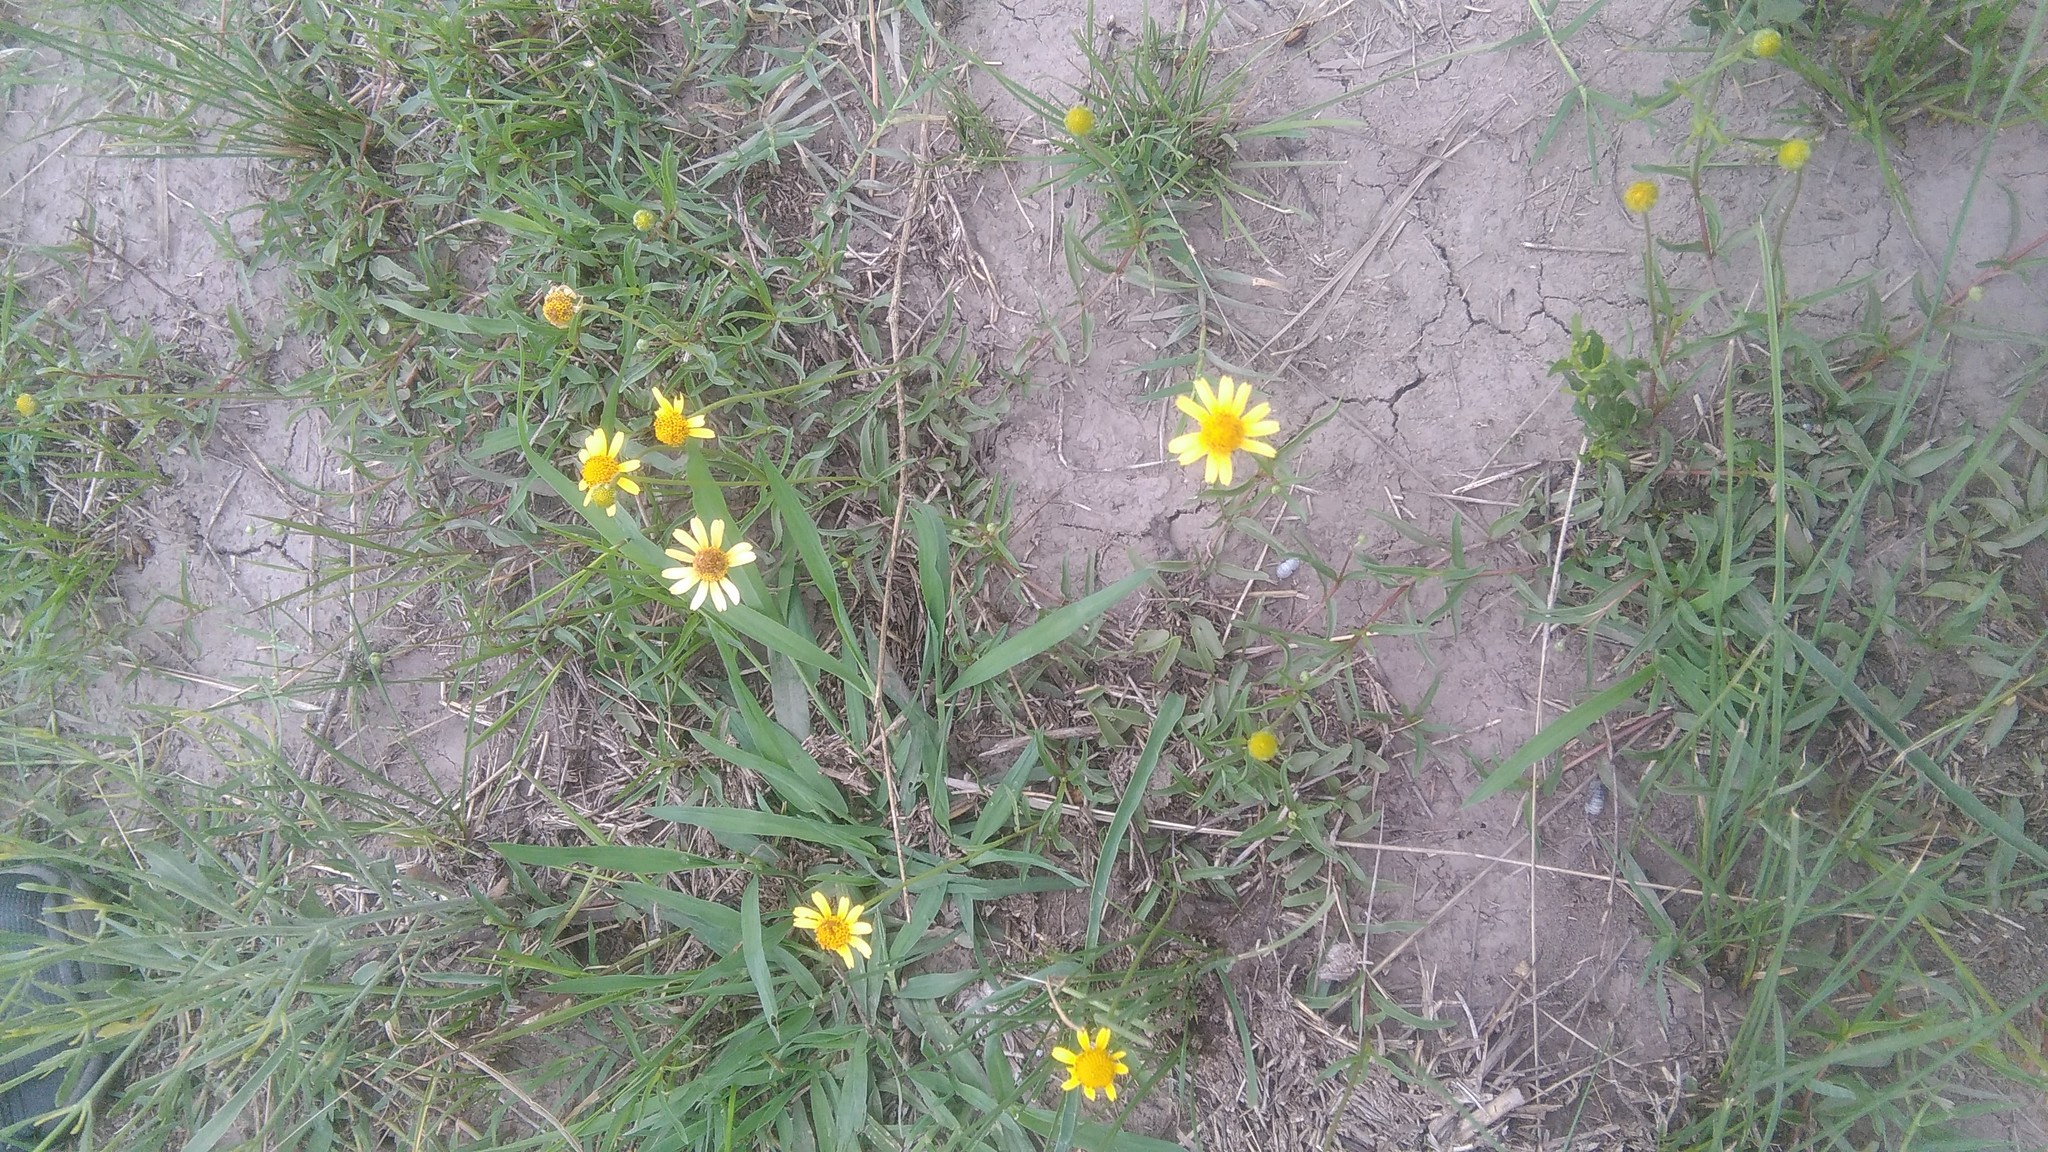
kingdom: Plantae
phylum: Tracheophyta
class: Magnoliopsida
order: Asterales
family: Asteraceae
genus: Acmella
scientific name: Acmella decumbens
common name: Creeping spotflower
